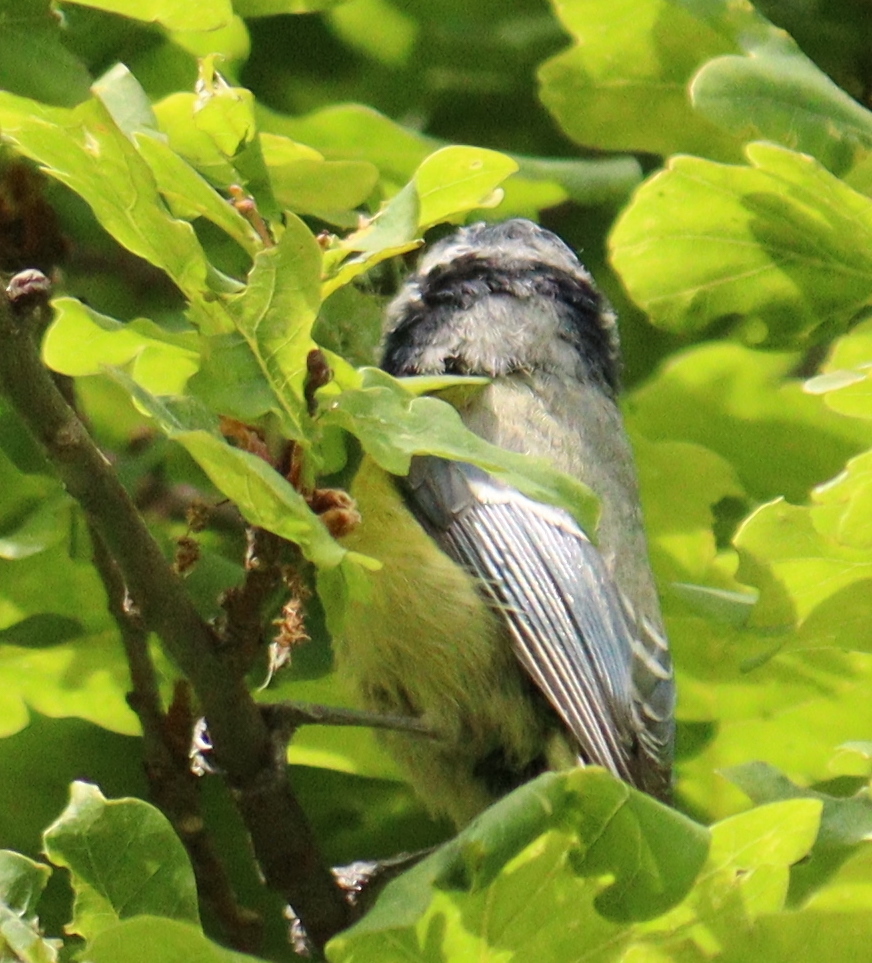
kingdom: Animalia
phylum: Chordata
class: Aves
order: Passeriformes
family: Paridae
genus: Cyanistes
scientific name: Cyanistes caeruleus
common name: Eurasian blue tit
